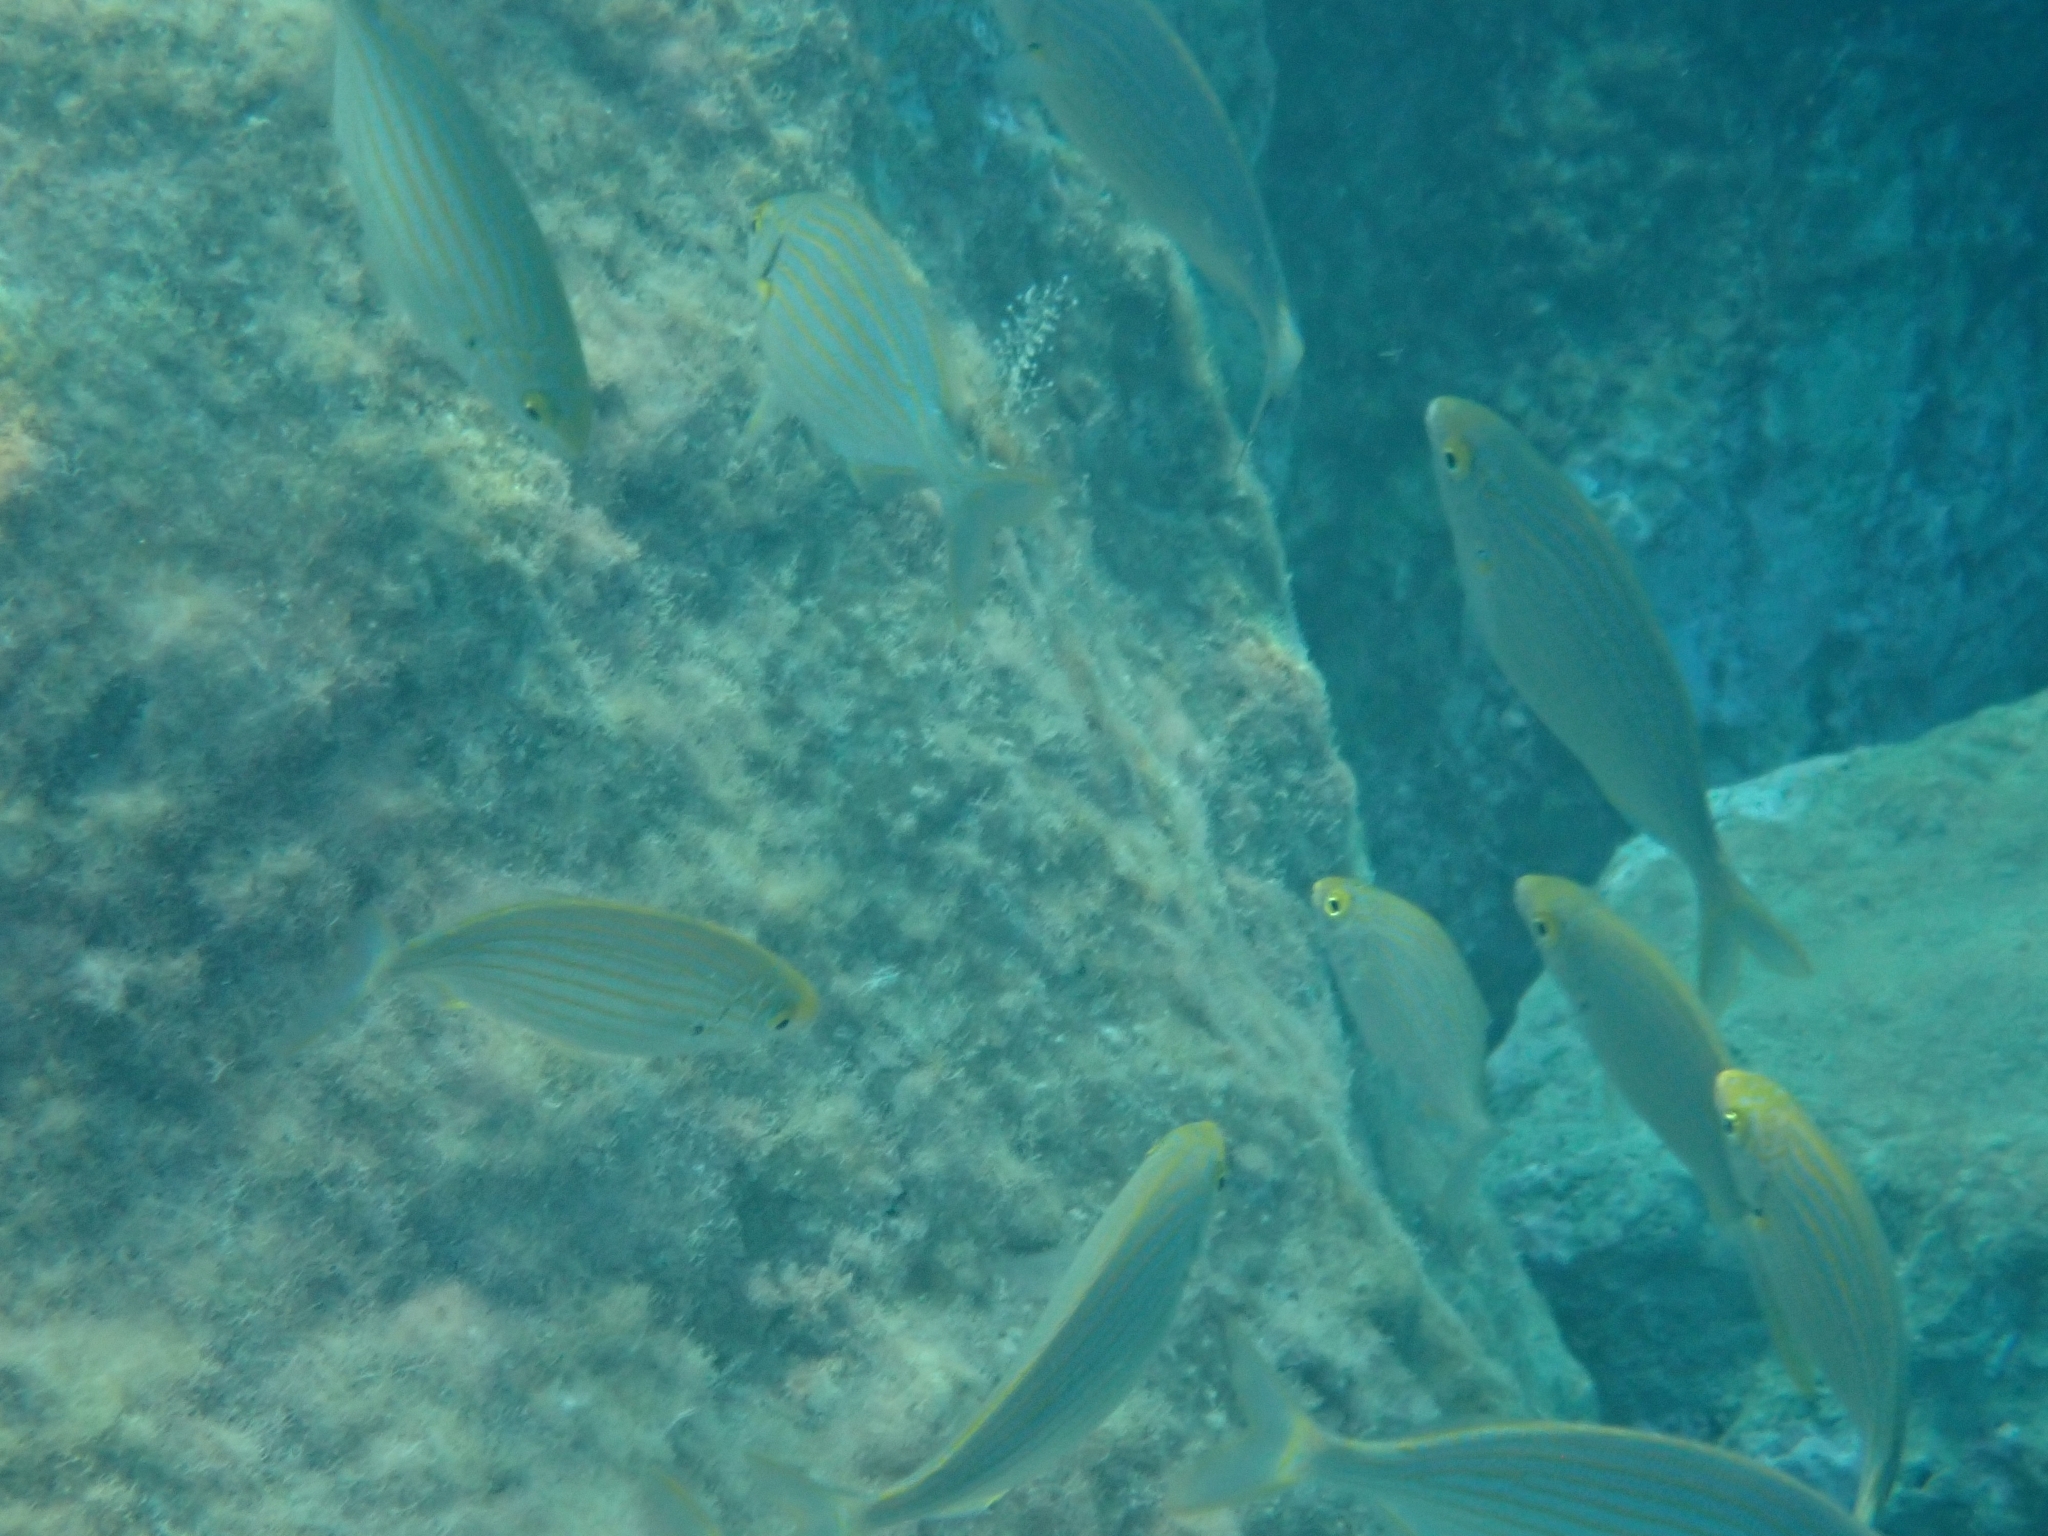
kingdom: Animalia
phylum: Chordata
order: Perciformes
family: Sparidae
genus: Sarpa
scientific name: Sarpa salpa
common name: Salema
